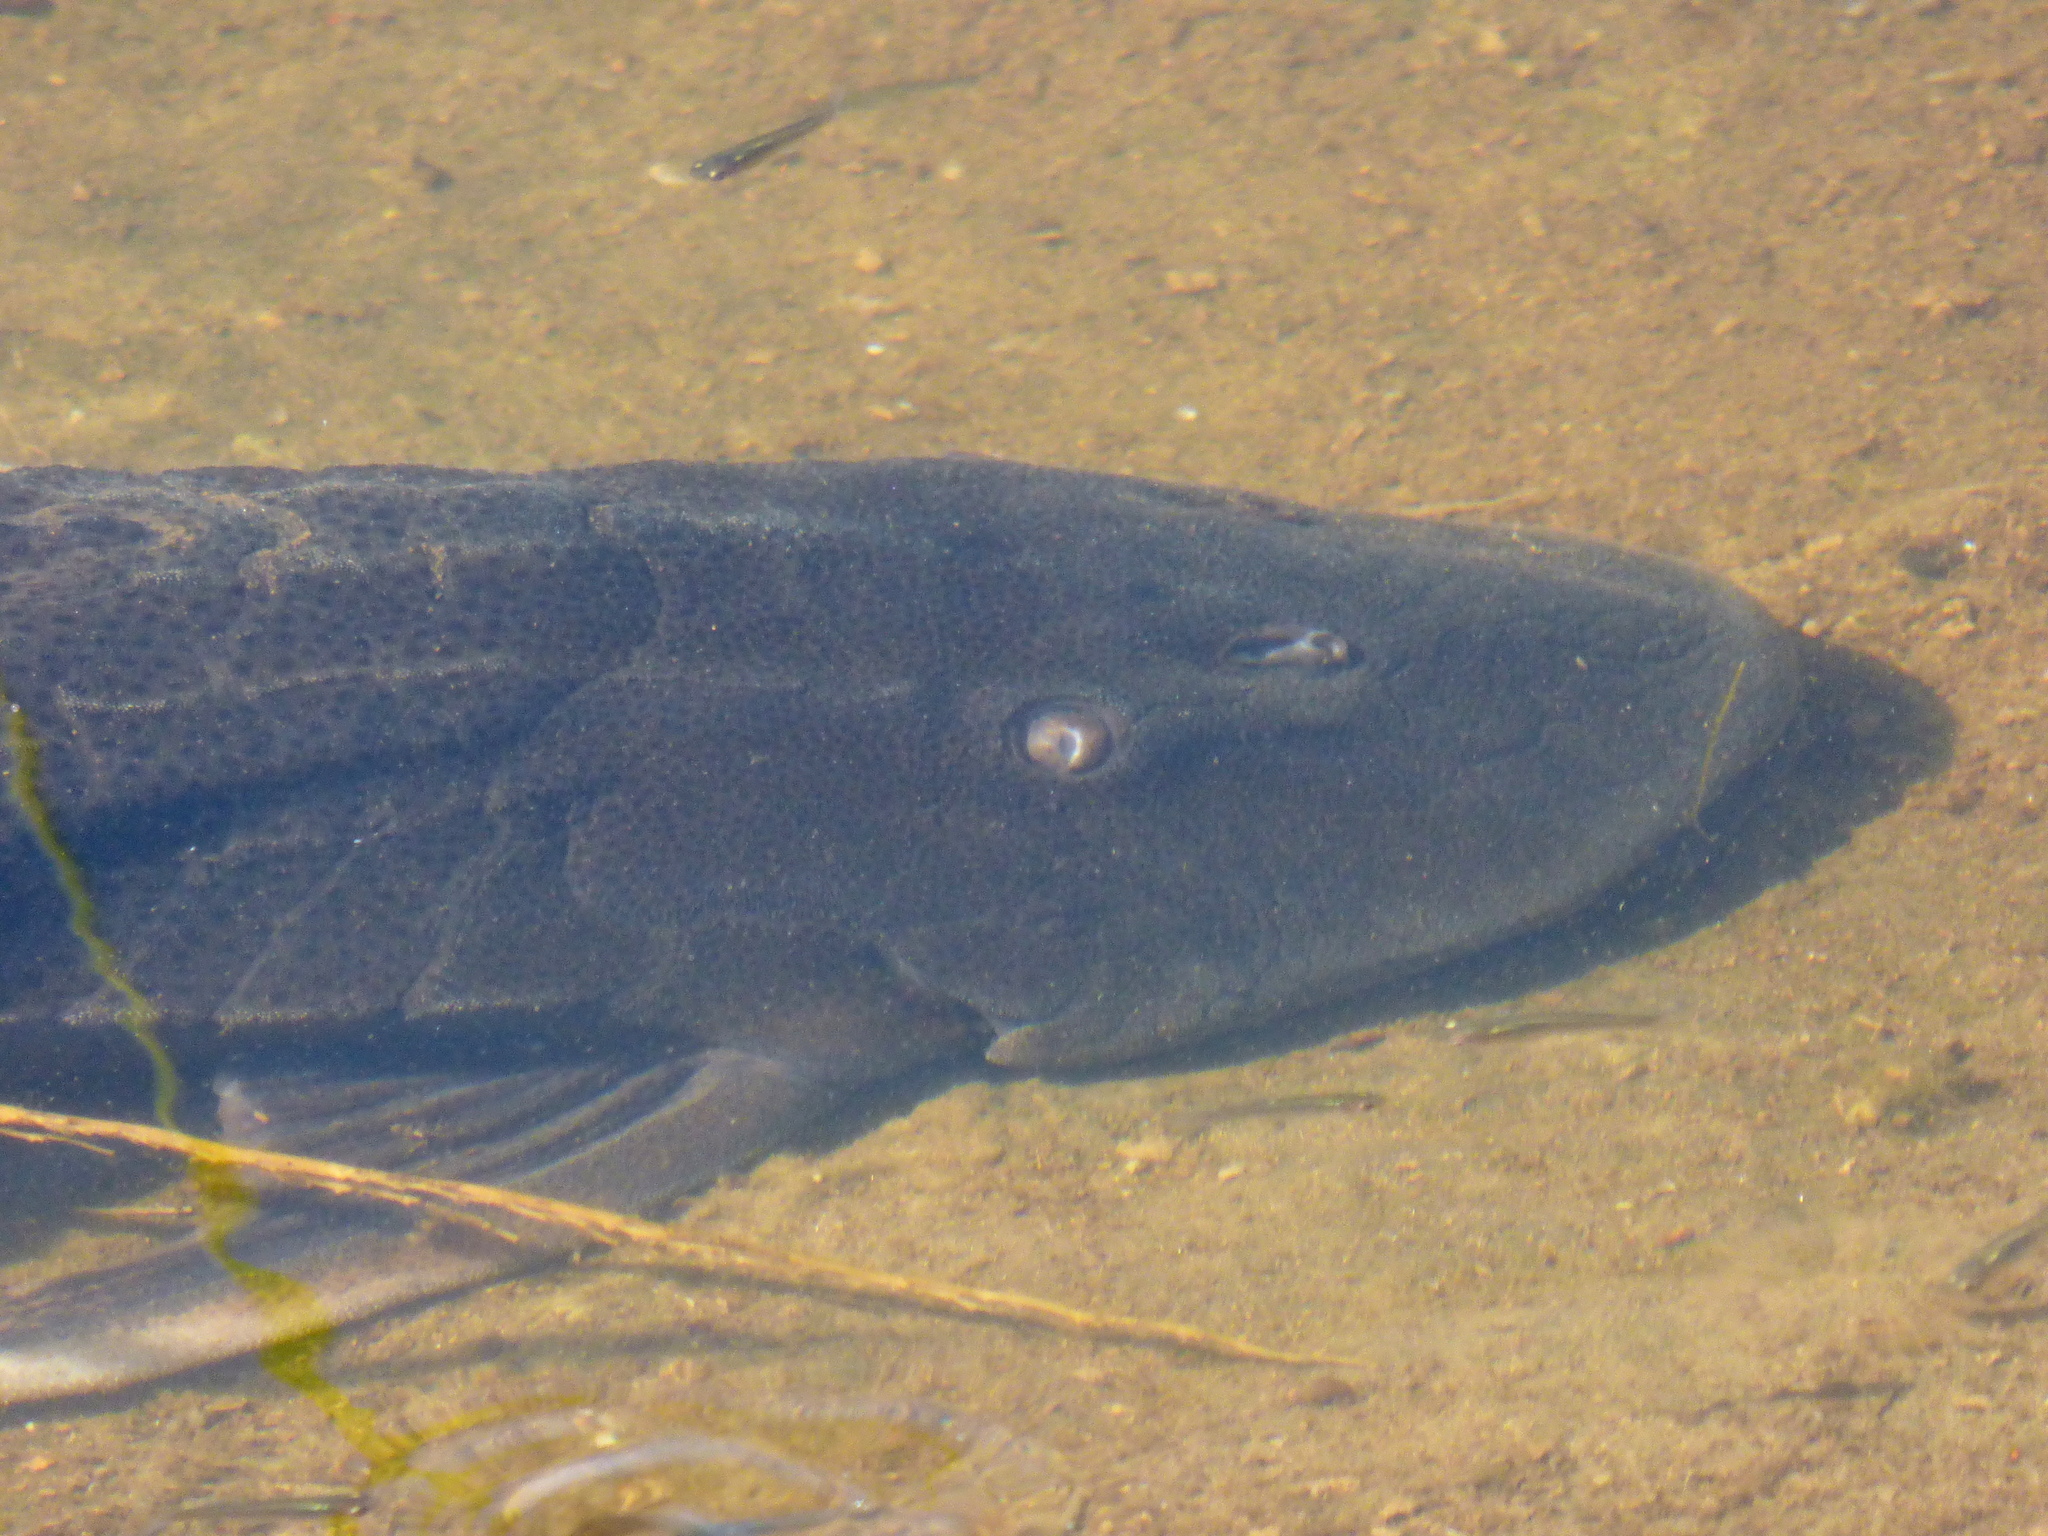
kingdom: Animalia
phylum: Chordata
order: Siluriformes
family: Loricariidae
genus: Hypostomus
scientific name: Hypostomus commersoni
